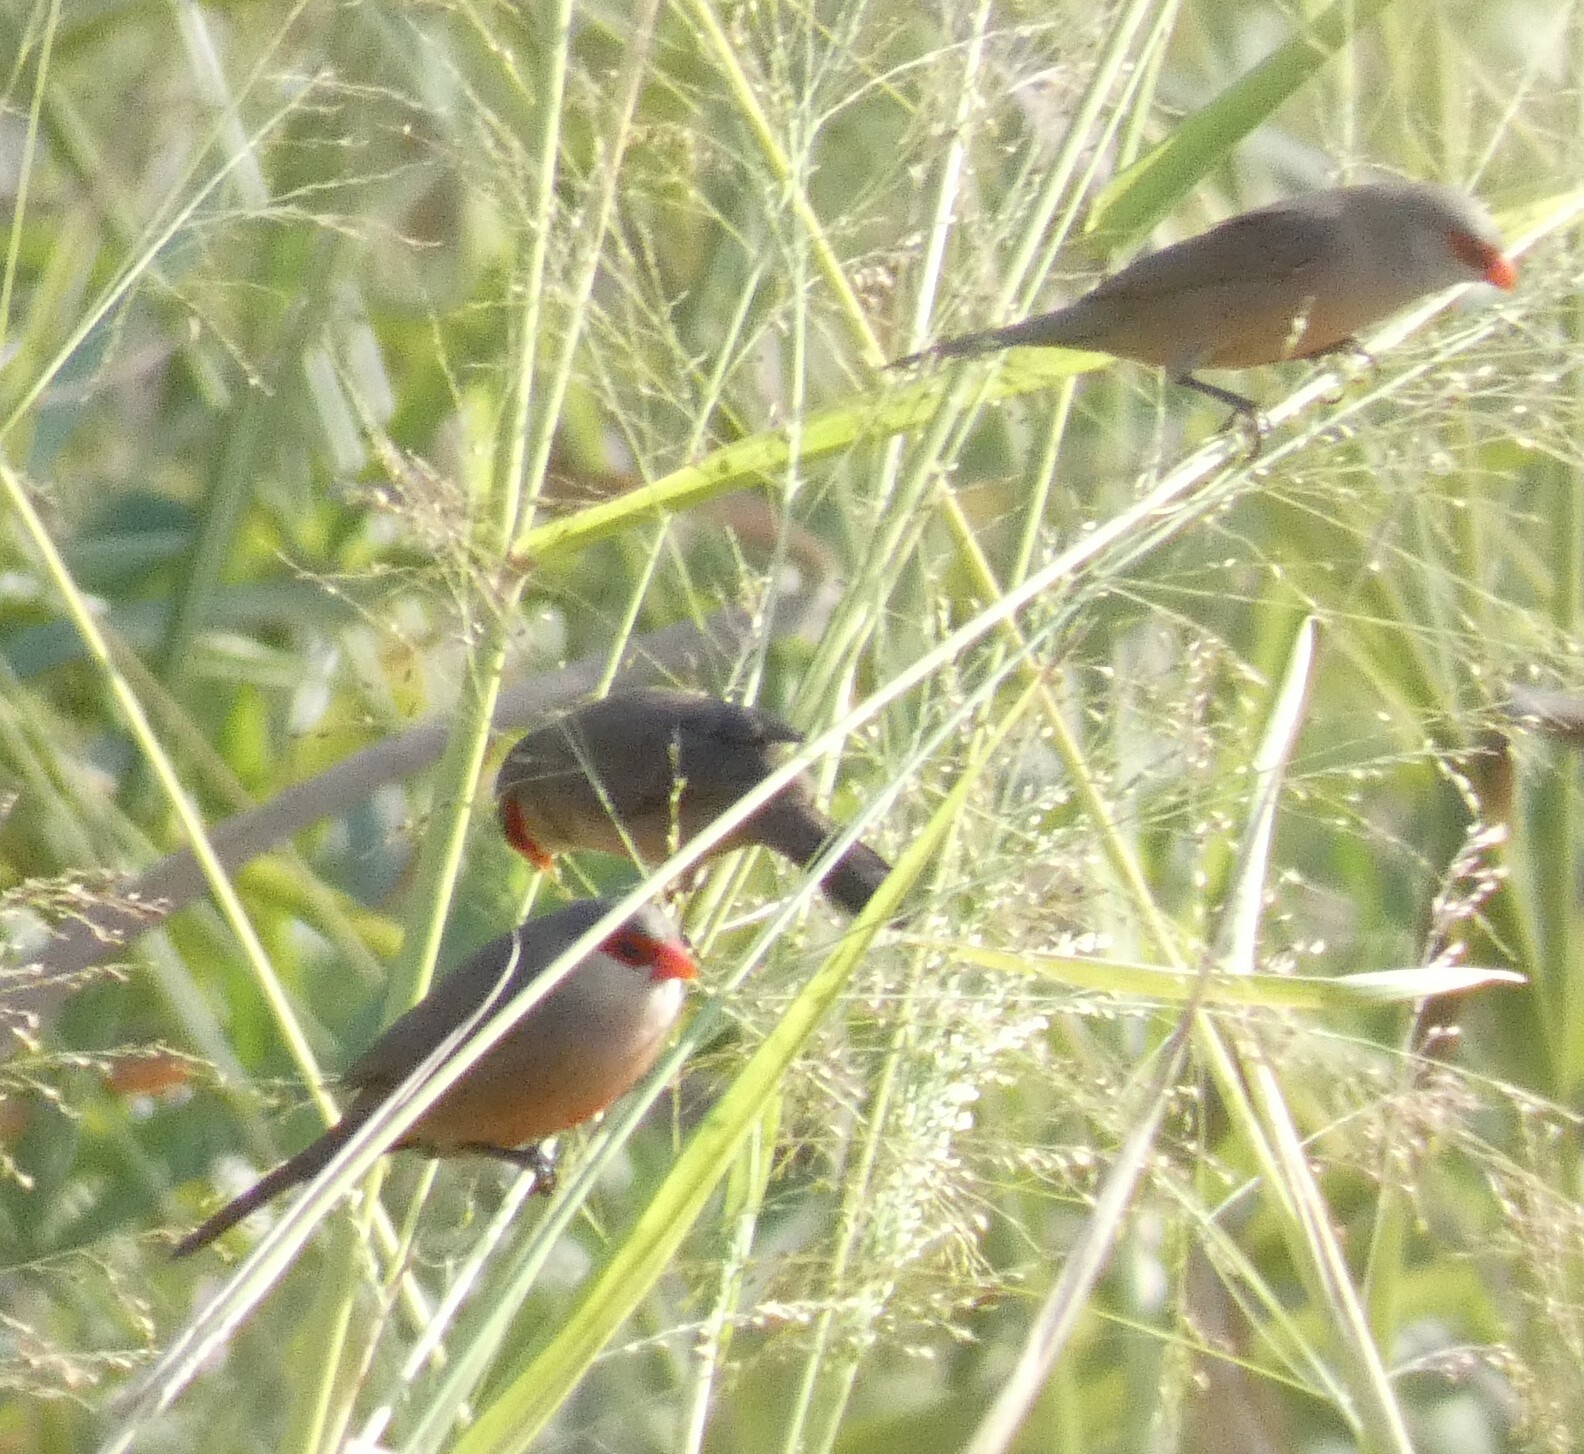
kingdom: Animalia
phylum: Chordata
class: Aves
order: Passeriformes
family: Estrildidae
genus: Estrilda
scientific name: Estrilda astrild
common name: Common waxbill
